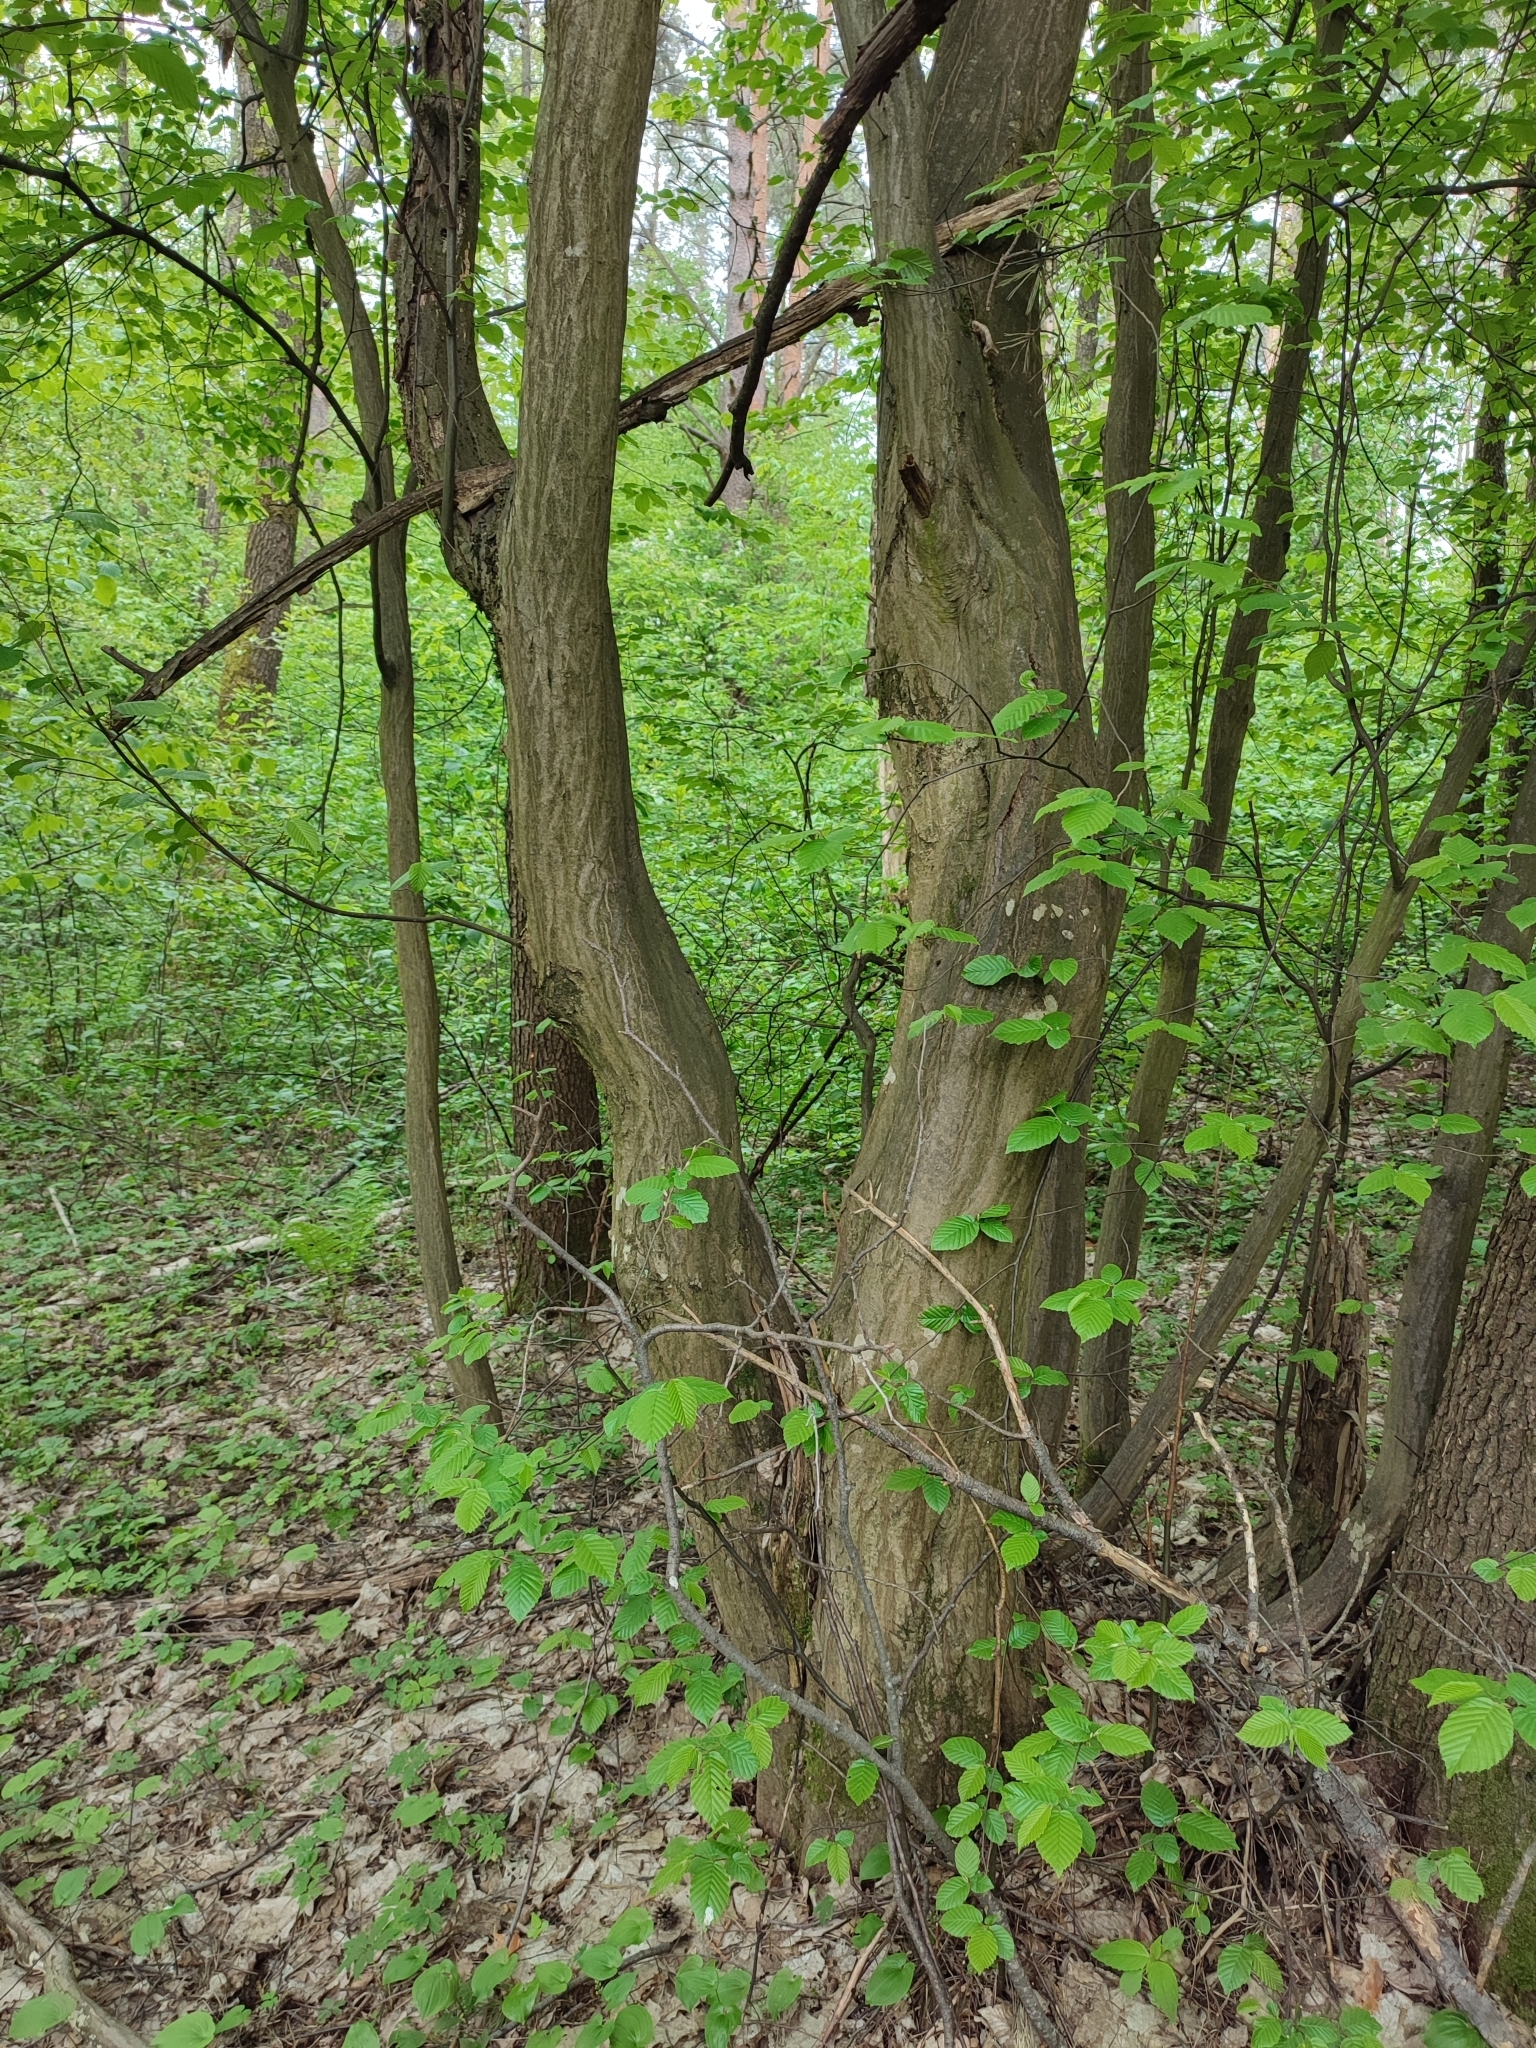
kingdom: Plantae
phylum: Tracheophyta
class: Magnoliopsida
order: Fagales
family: Betulaceae
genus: Carpinus
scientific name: Carpinus betulus
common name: Hornbeam
